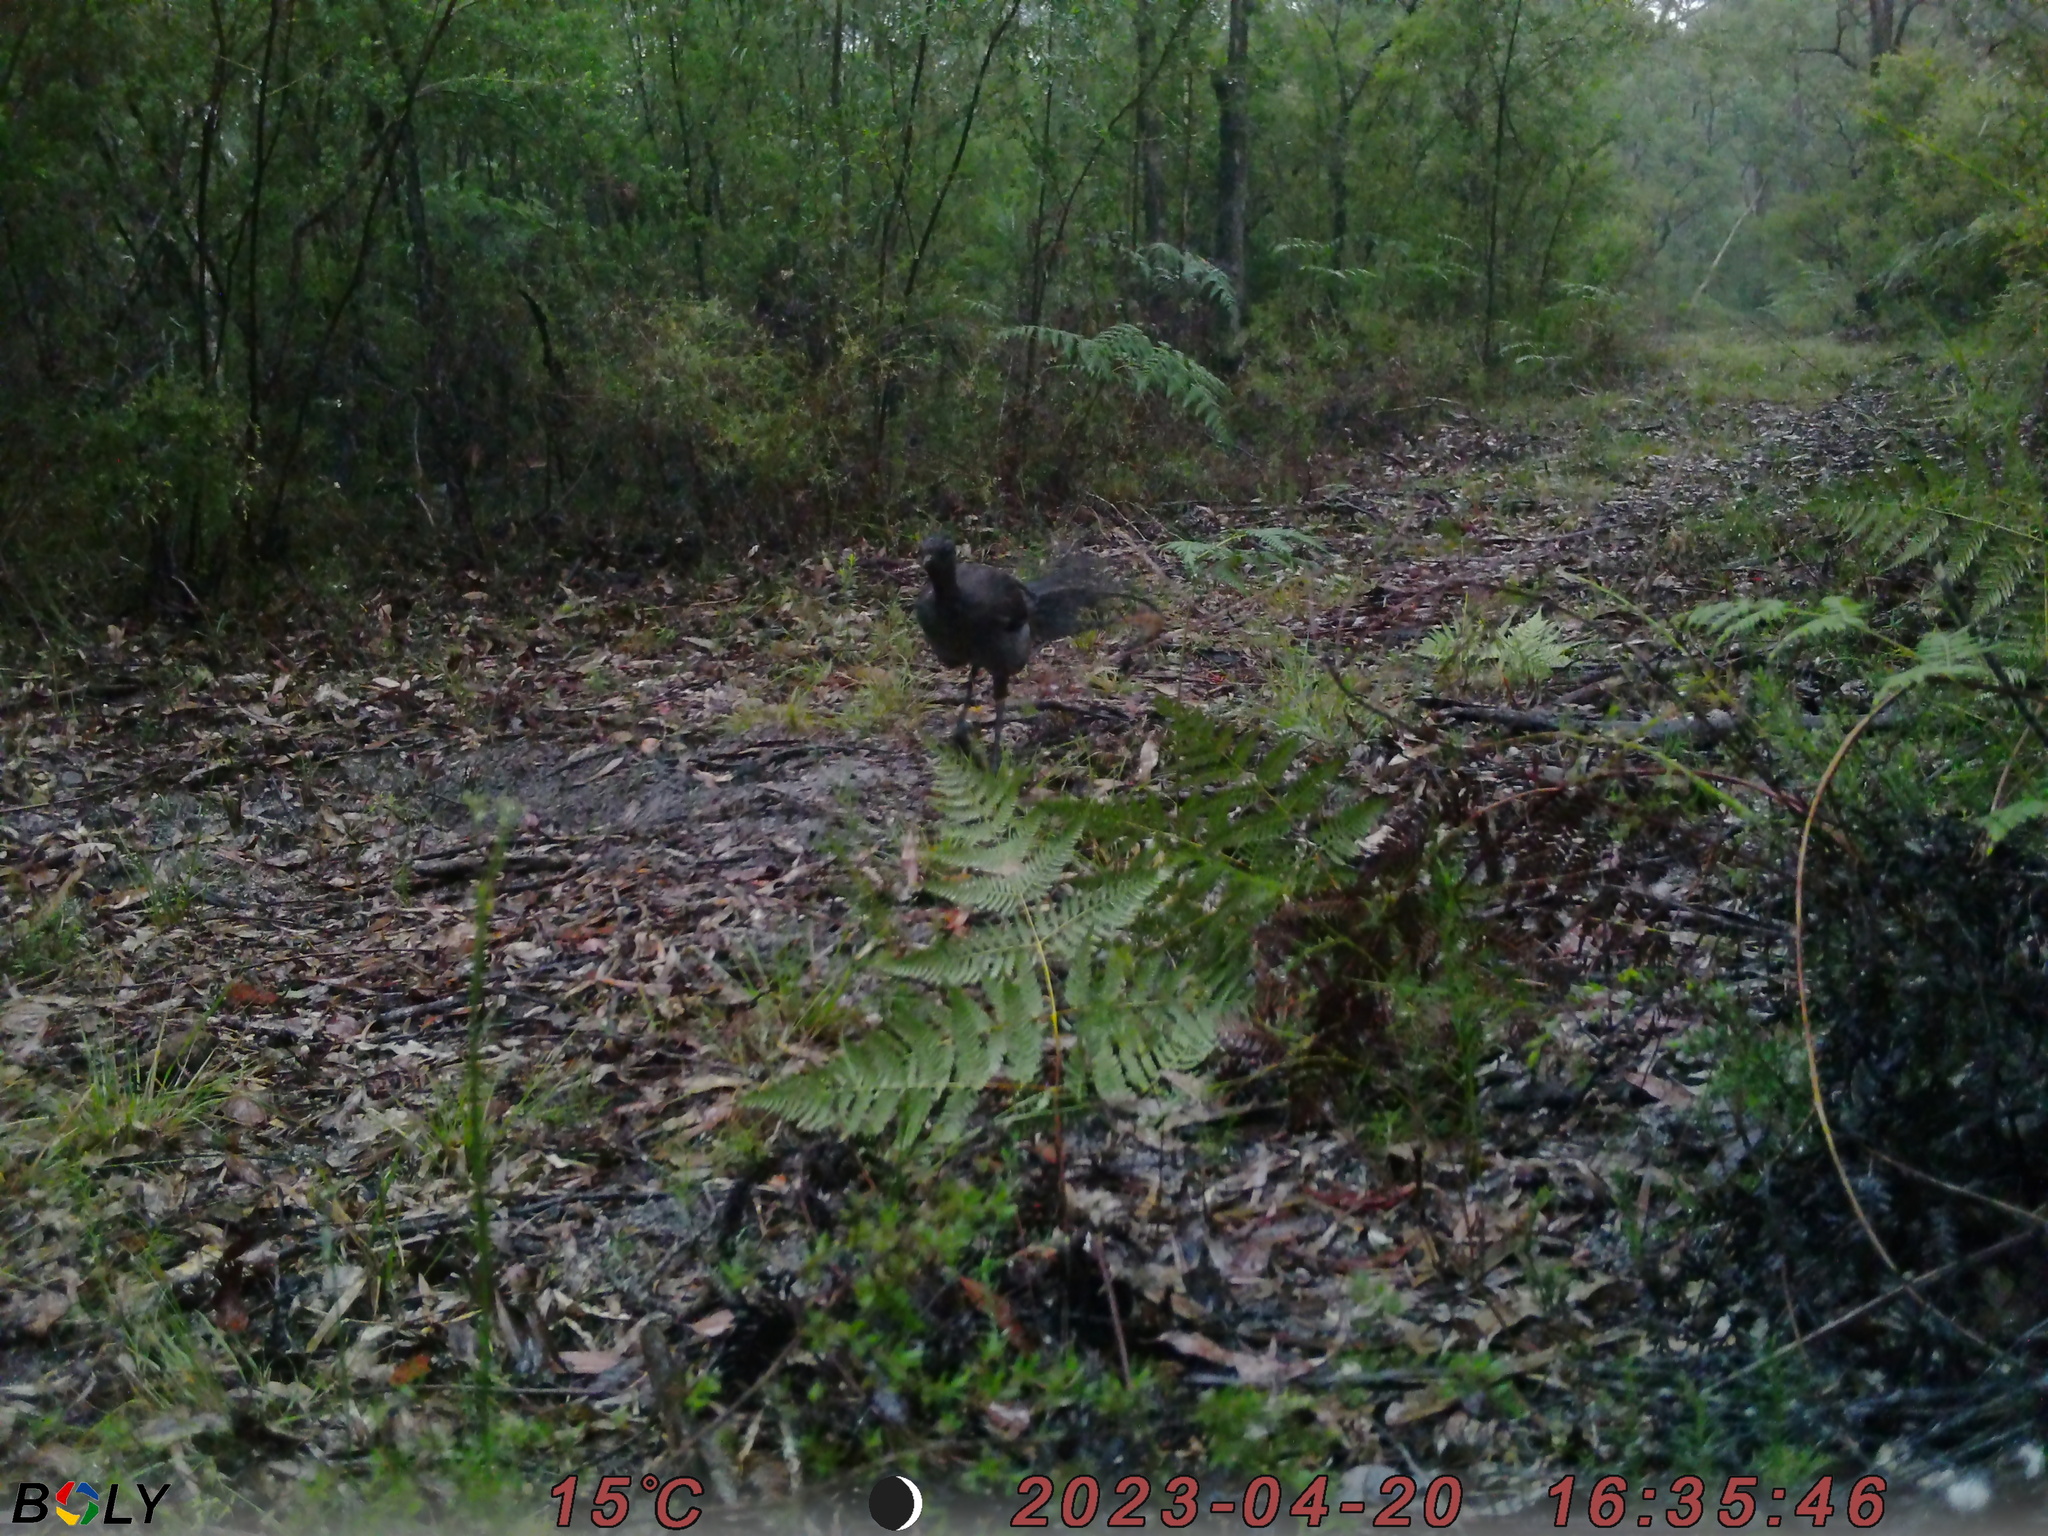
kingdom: Animalia
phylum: Chordata
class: Aves
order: Passeriformes
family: Menuridae
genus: Menura
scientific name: Menura novaehollandiae
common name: Superb lyrebird
